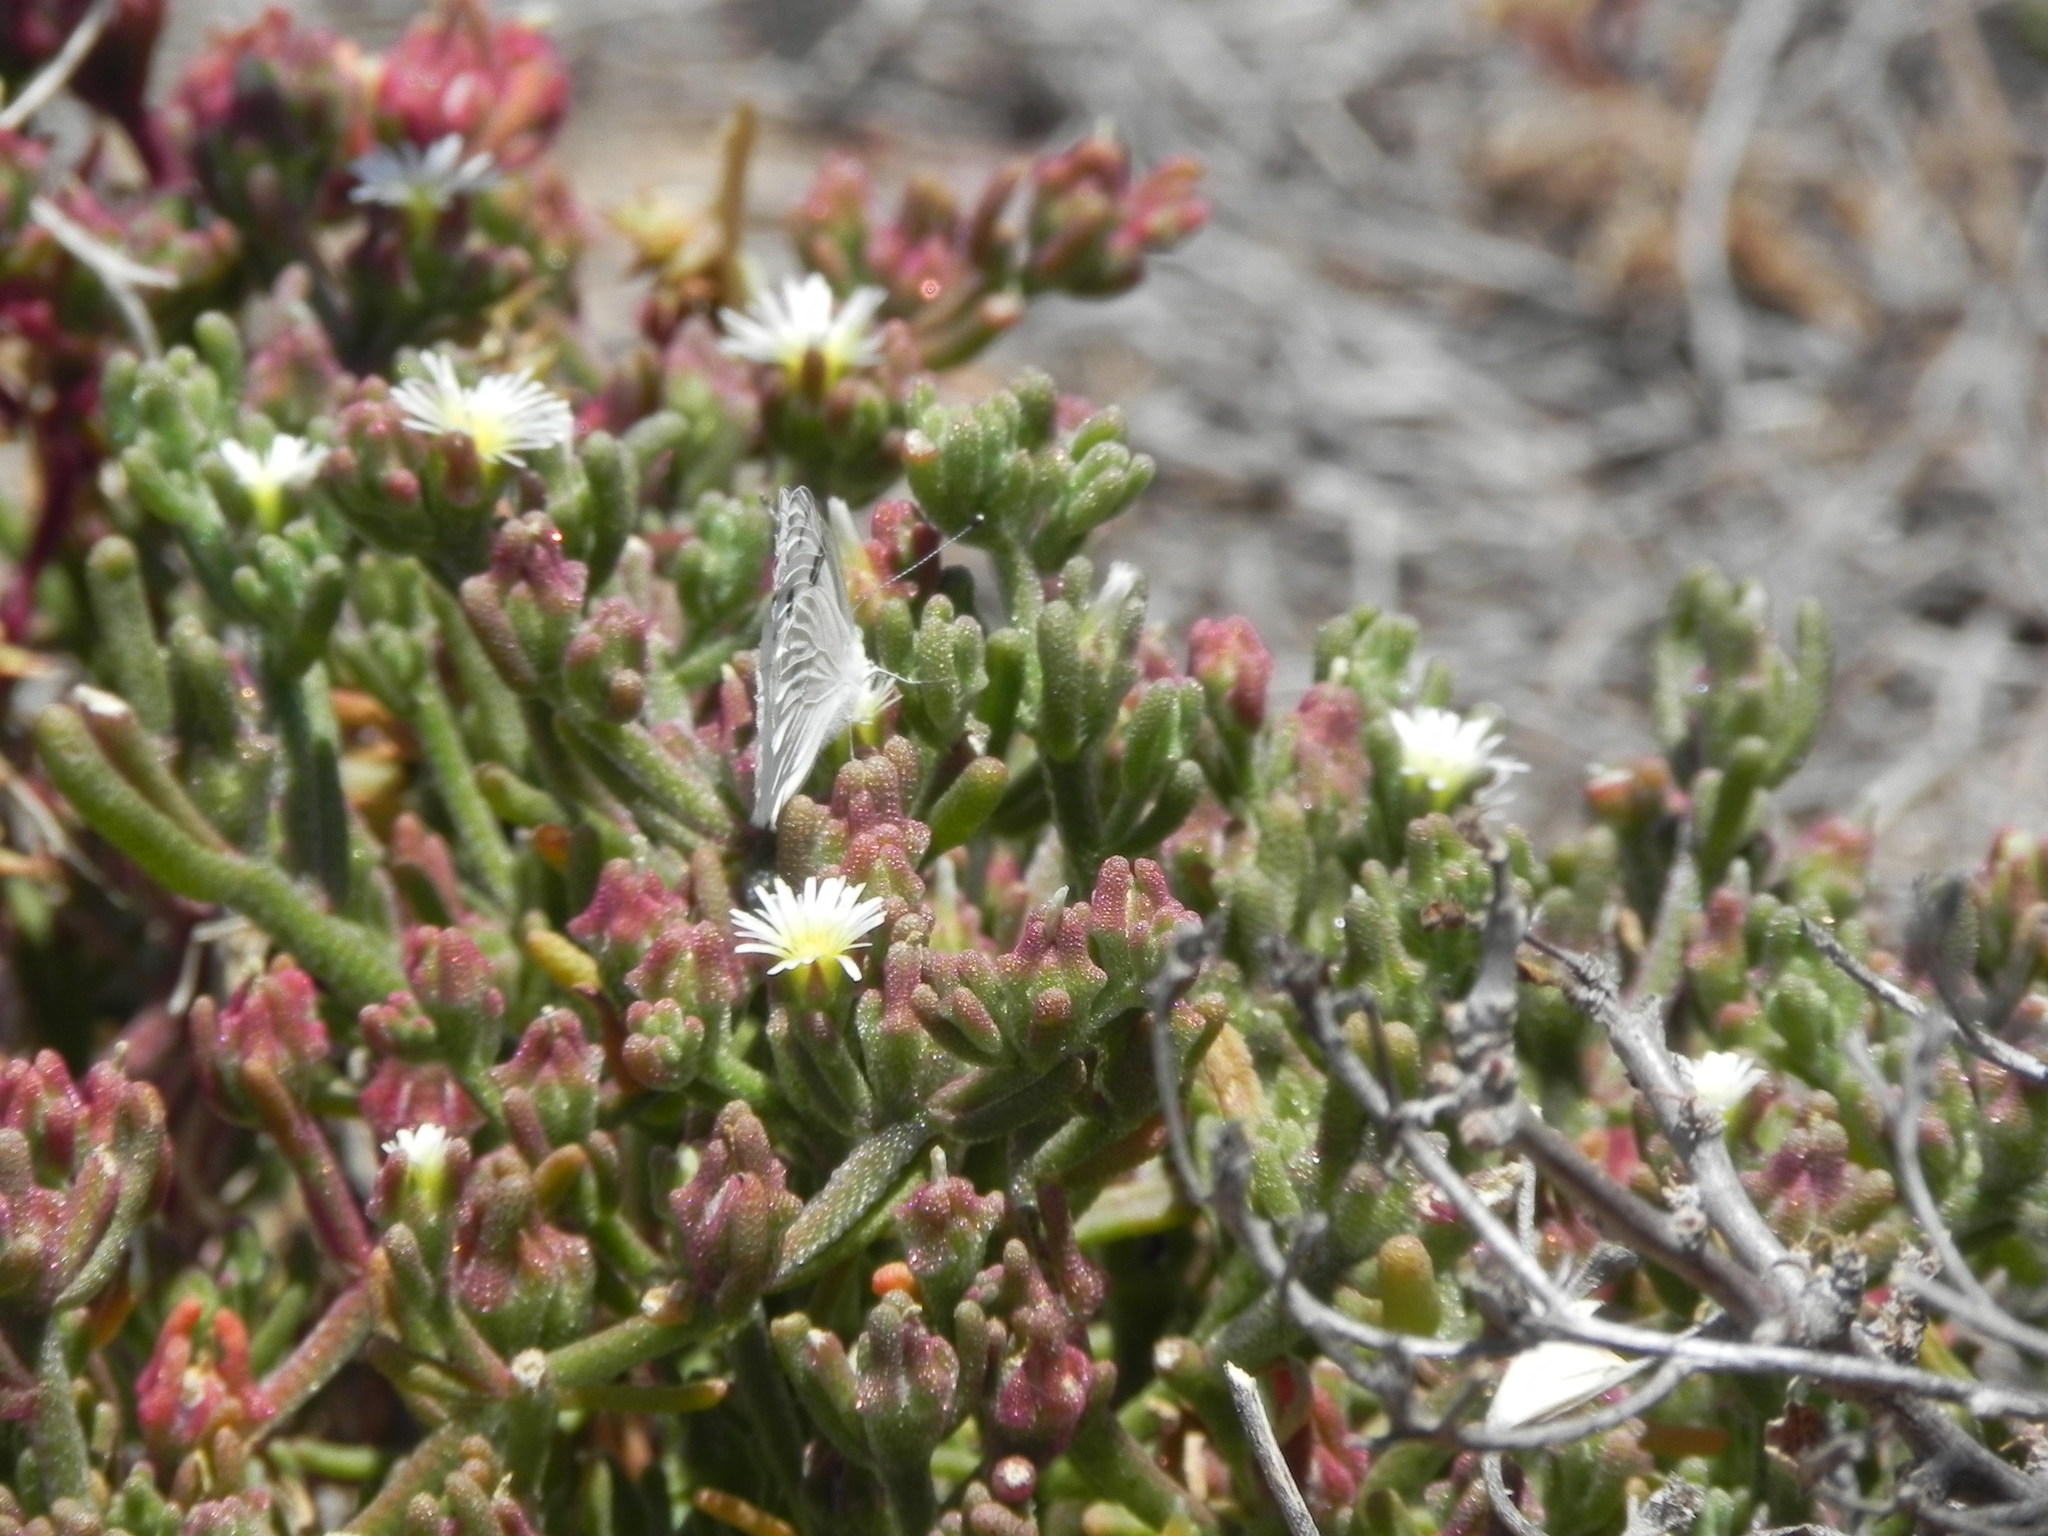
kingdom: Animalia
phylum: Arthropoda
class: Insecta
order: Lepidoptera
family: Pieridae
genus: Pontia
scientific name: Pontia protodice
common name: Checkered white
